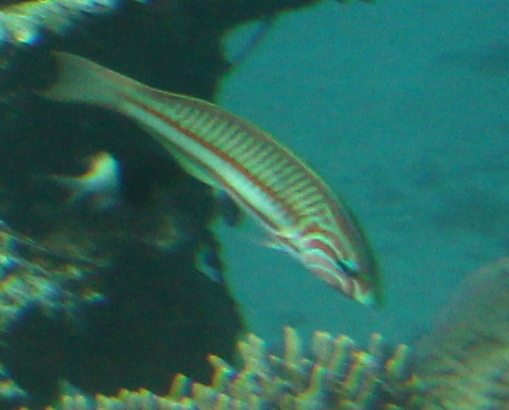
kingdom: Animalia
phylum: Chordata
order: Perciformes
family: Labridae
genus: Thalassoma
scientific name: Thalassoma rueppellii
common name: Klunzinger's wrasse
